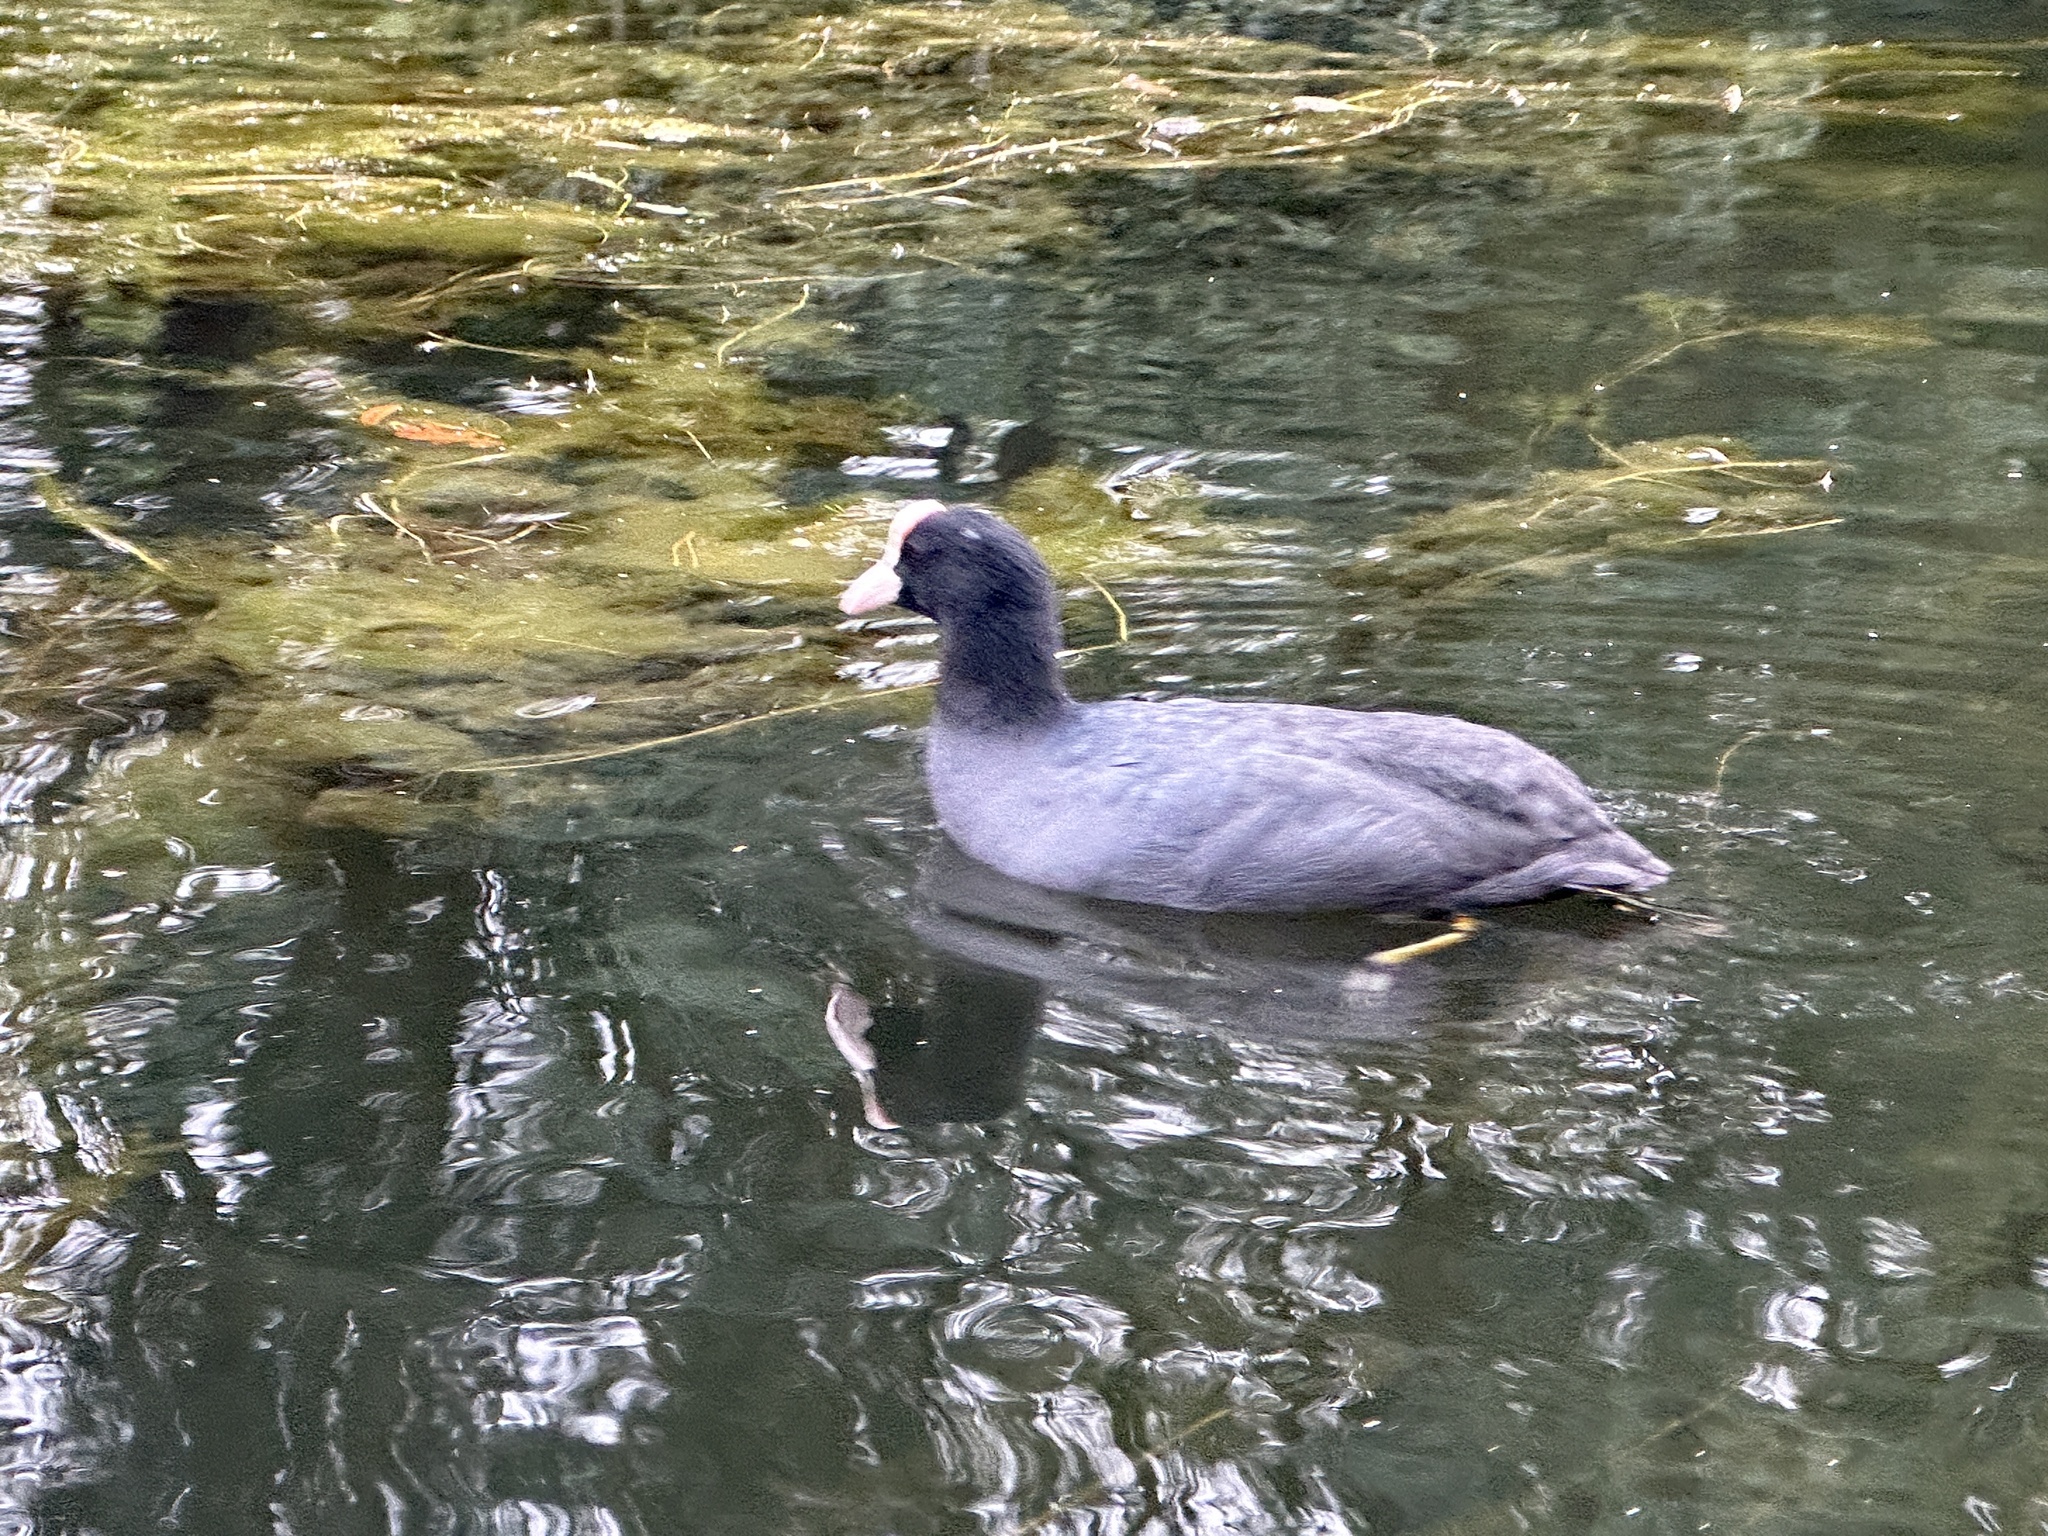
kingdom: Animalia
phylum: Chordata
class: Aves
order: Gruiformes
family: Rallidae
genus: Fulica
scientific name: Fulica atra
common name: Eurasian coot
